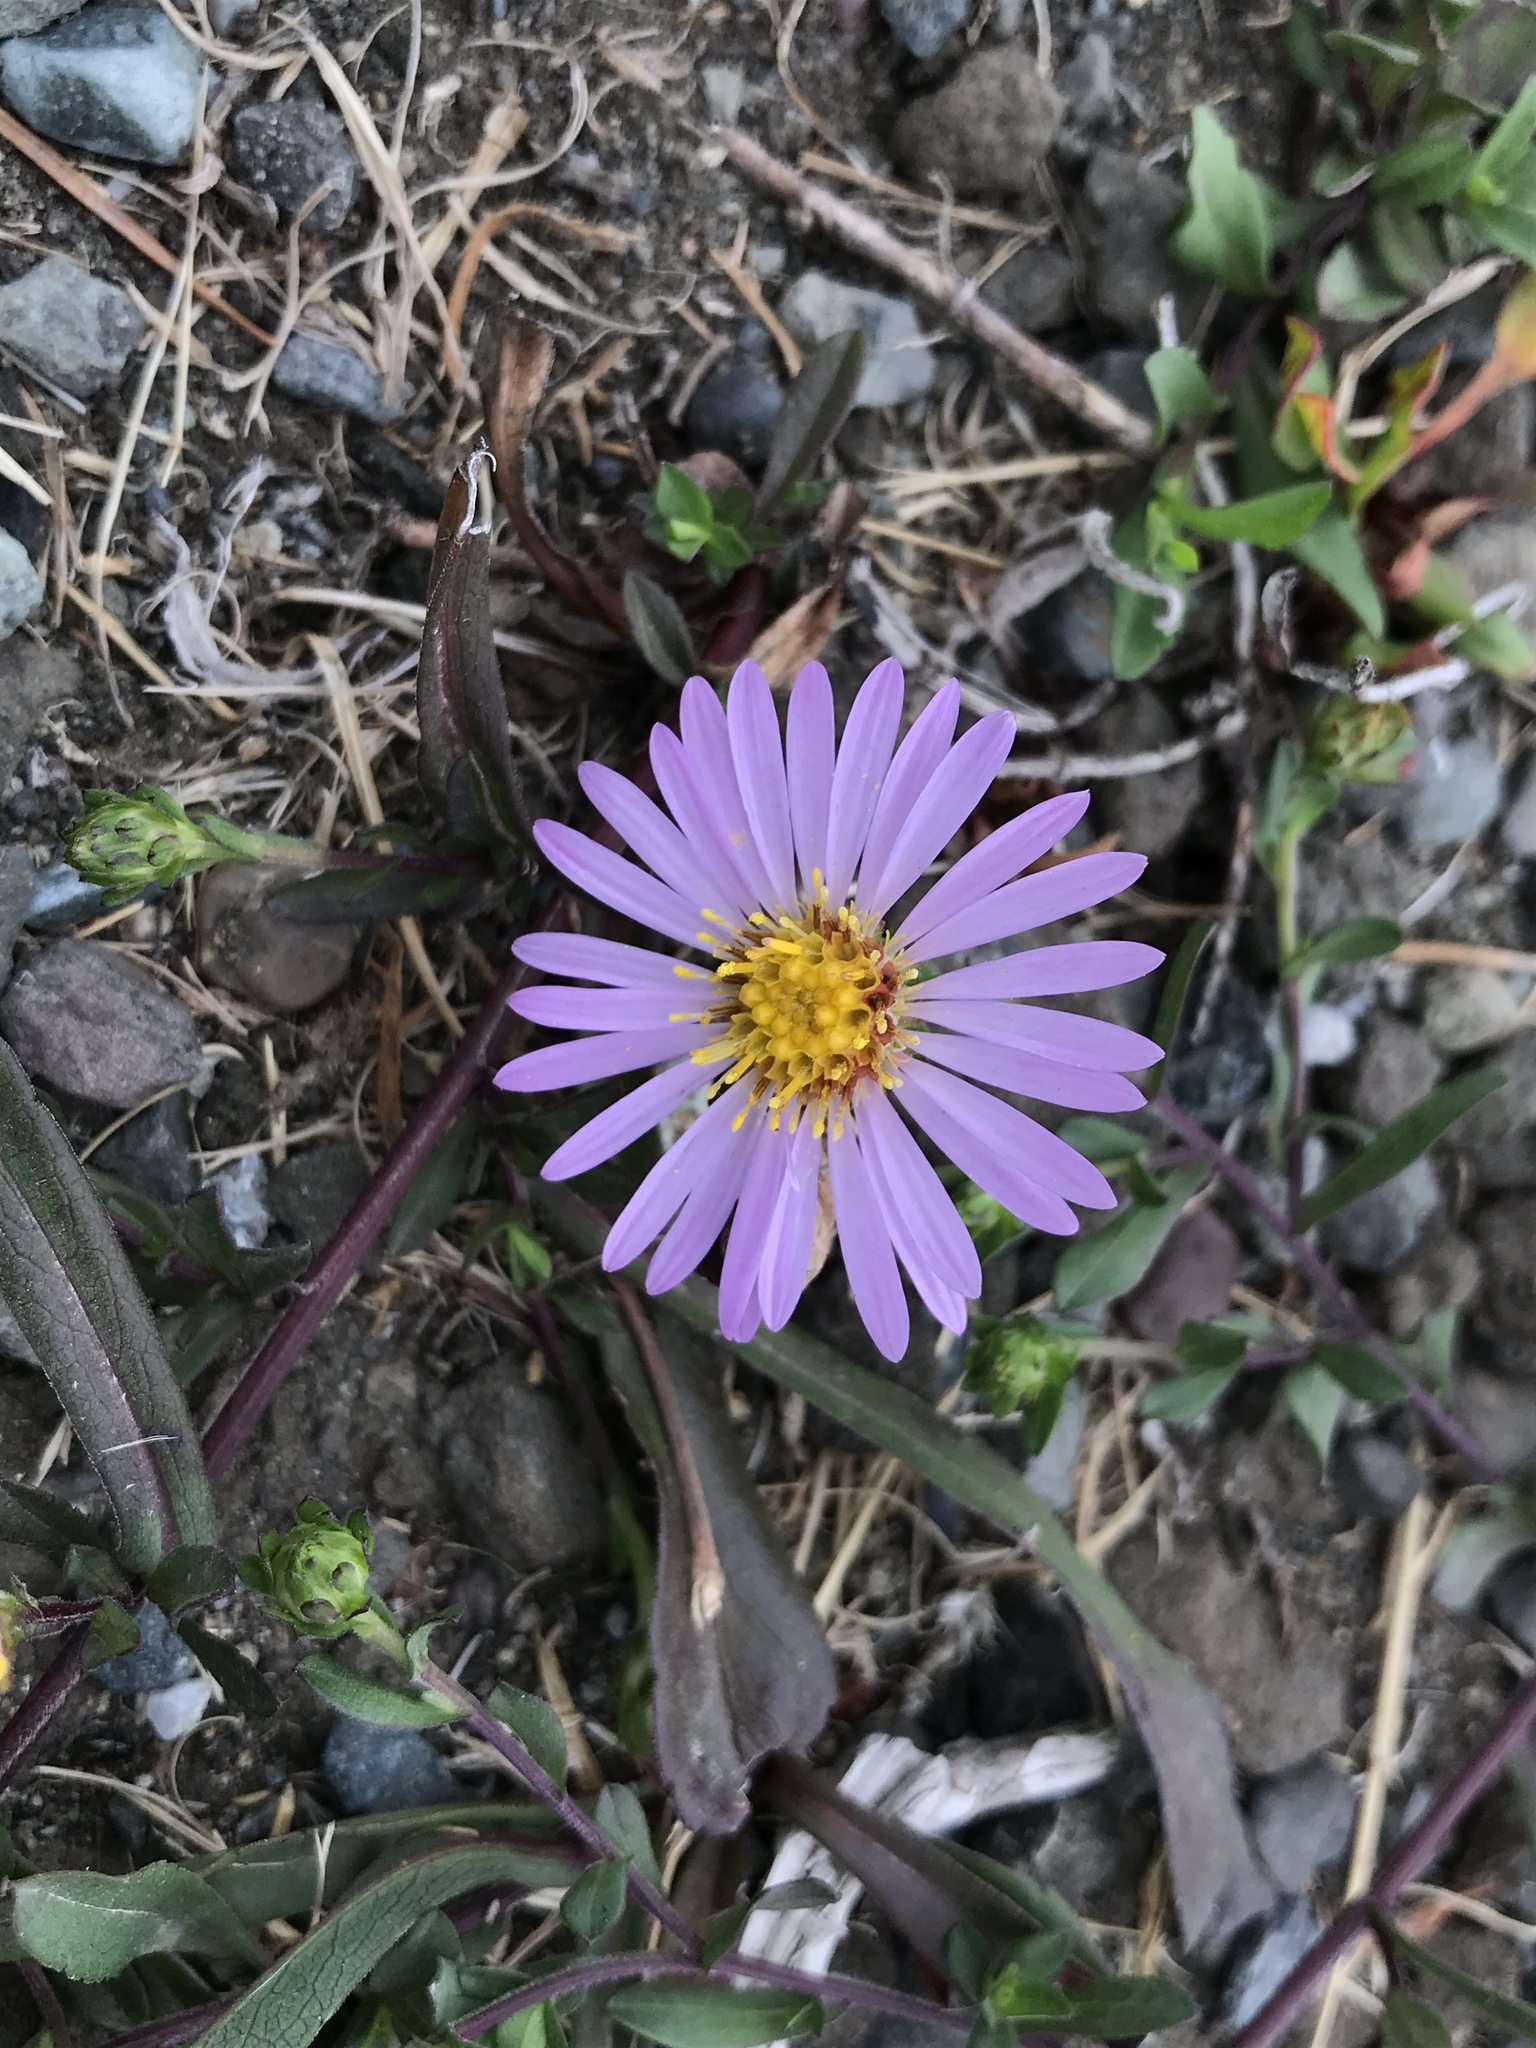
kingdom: Plantae
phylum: Tracheophyta
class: Magnoliopsida
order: Asterales
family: Asteraceae
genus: Symphyotrichum
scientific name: Symphyotrichum chilense
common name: Pacific aster
